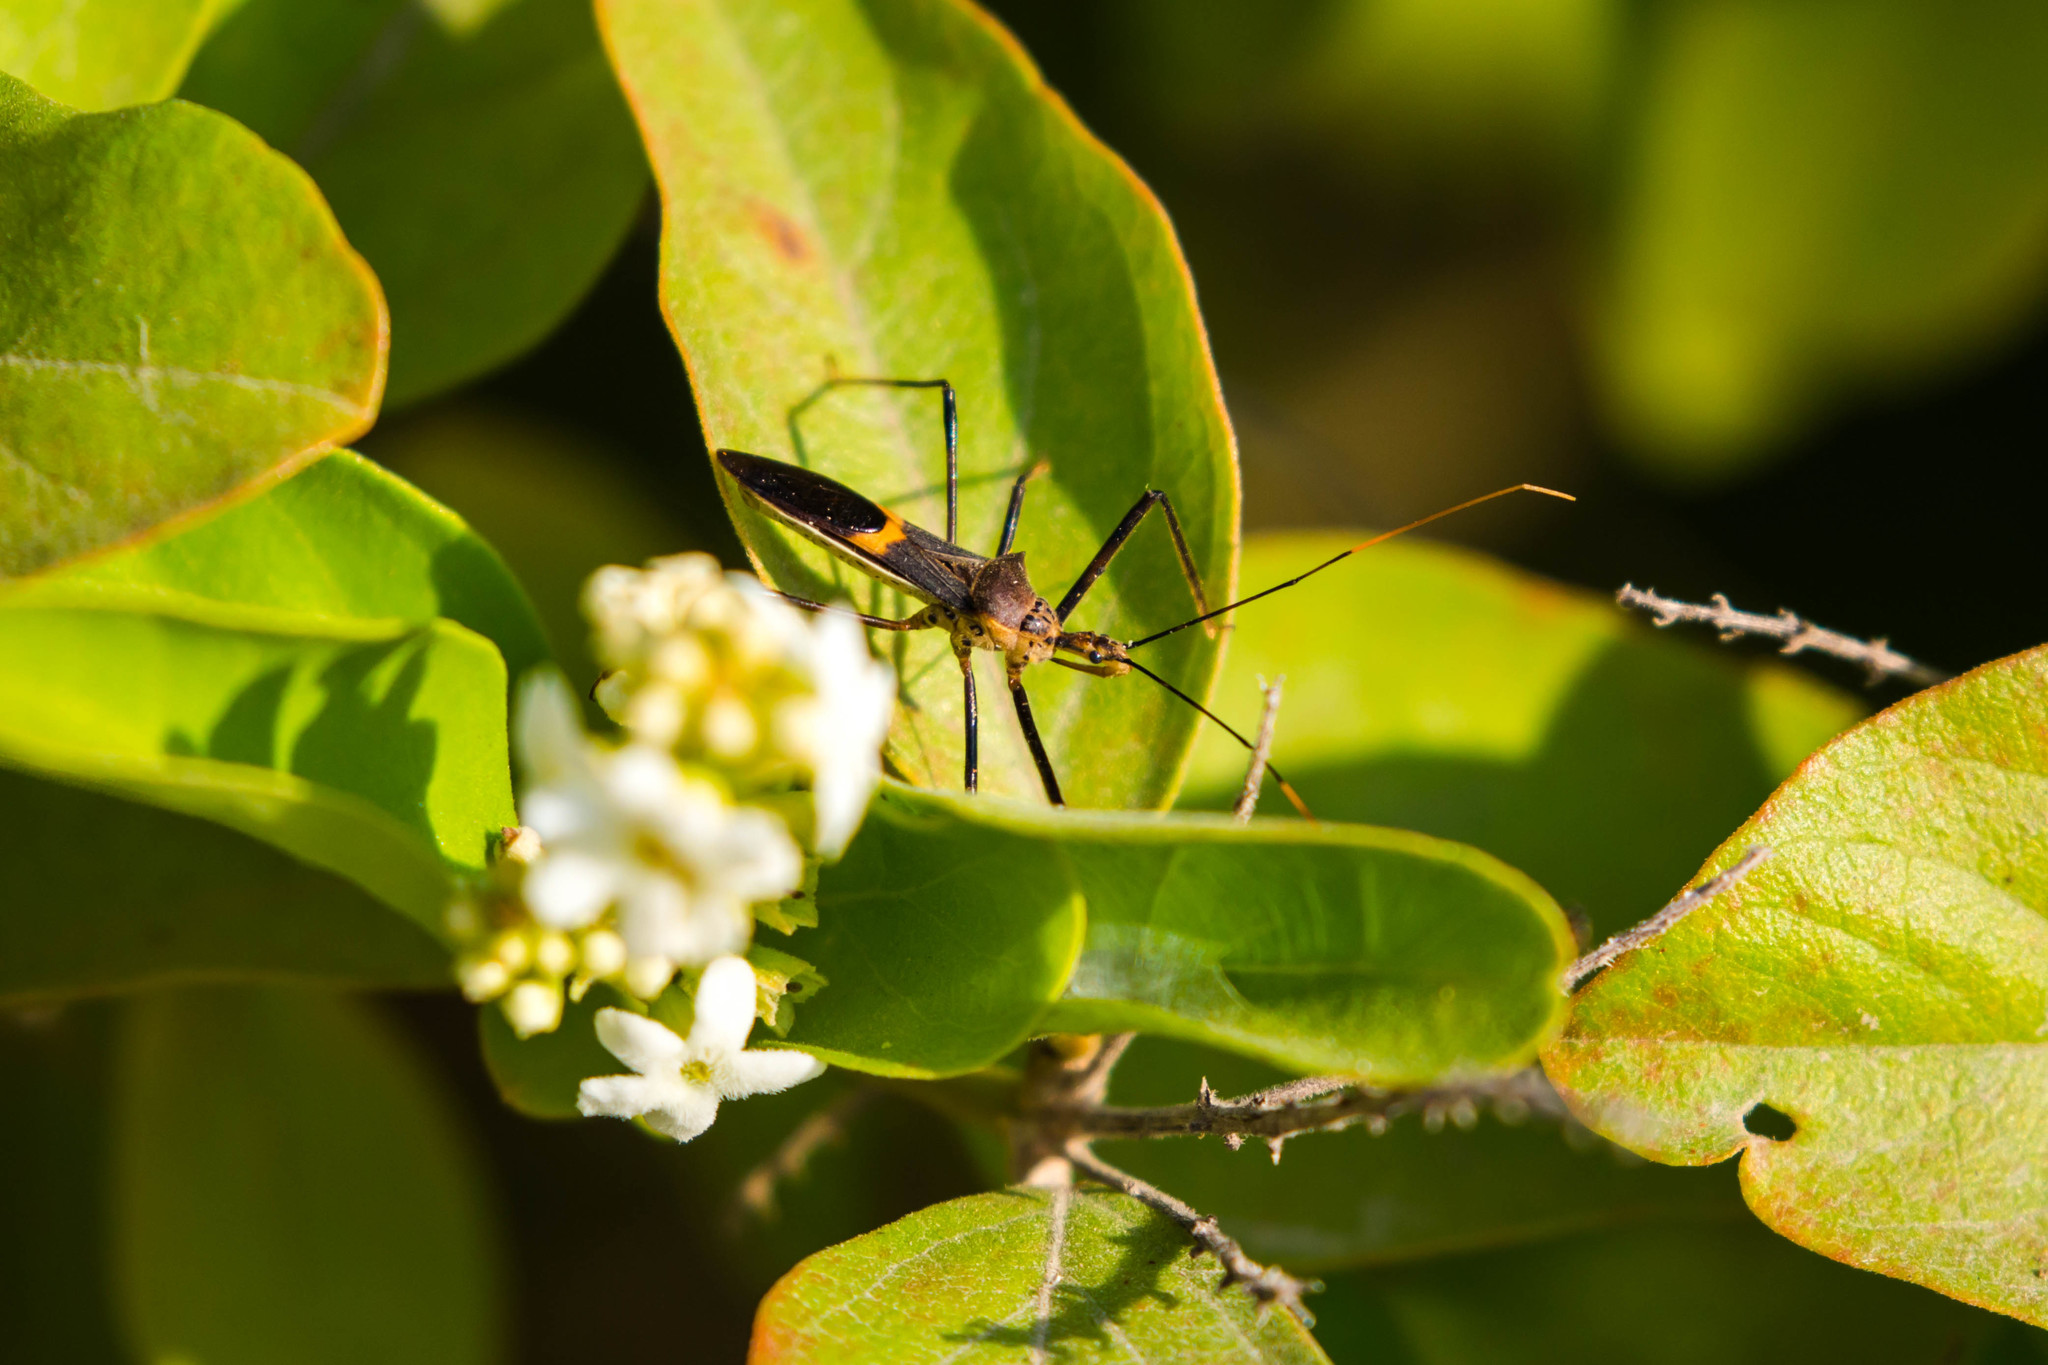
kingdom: Animalia
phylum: Arthropoda
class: Insecta
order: Hemiptera
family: Reduviidae
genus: Zelus
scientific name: Zelus janus
